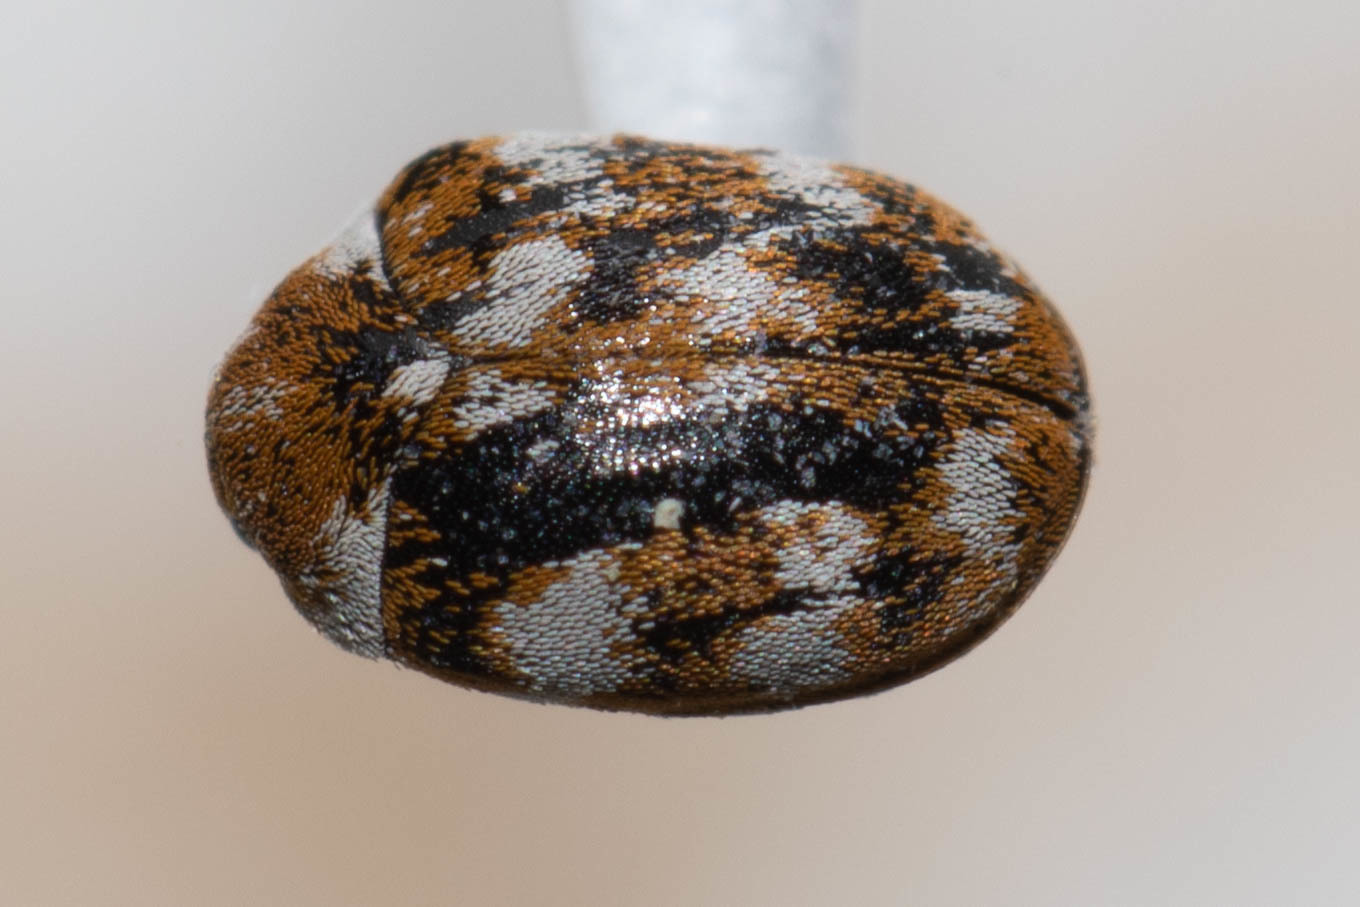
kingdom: Animalia
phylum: Arthropoda
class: Insecta
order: Coleoptera
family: Dermestidae
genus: Anthrenus
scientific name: Anthrenus verbasci
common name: Varied carpet beetle
